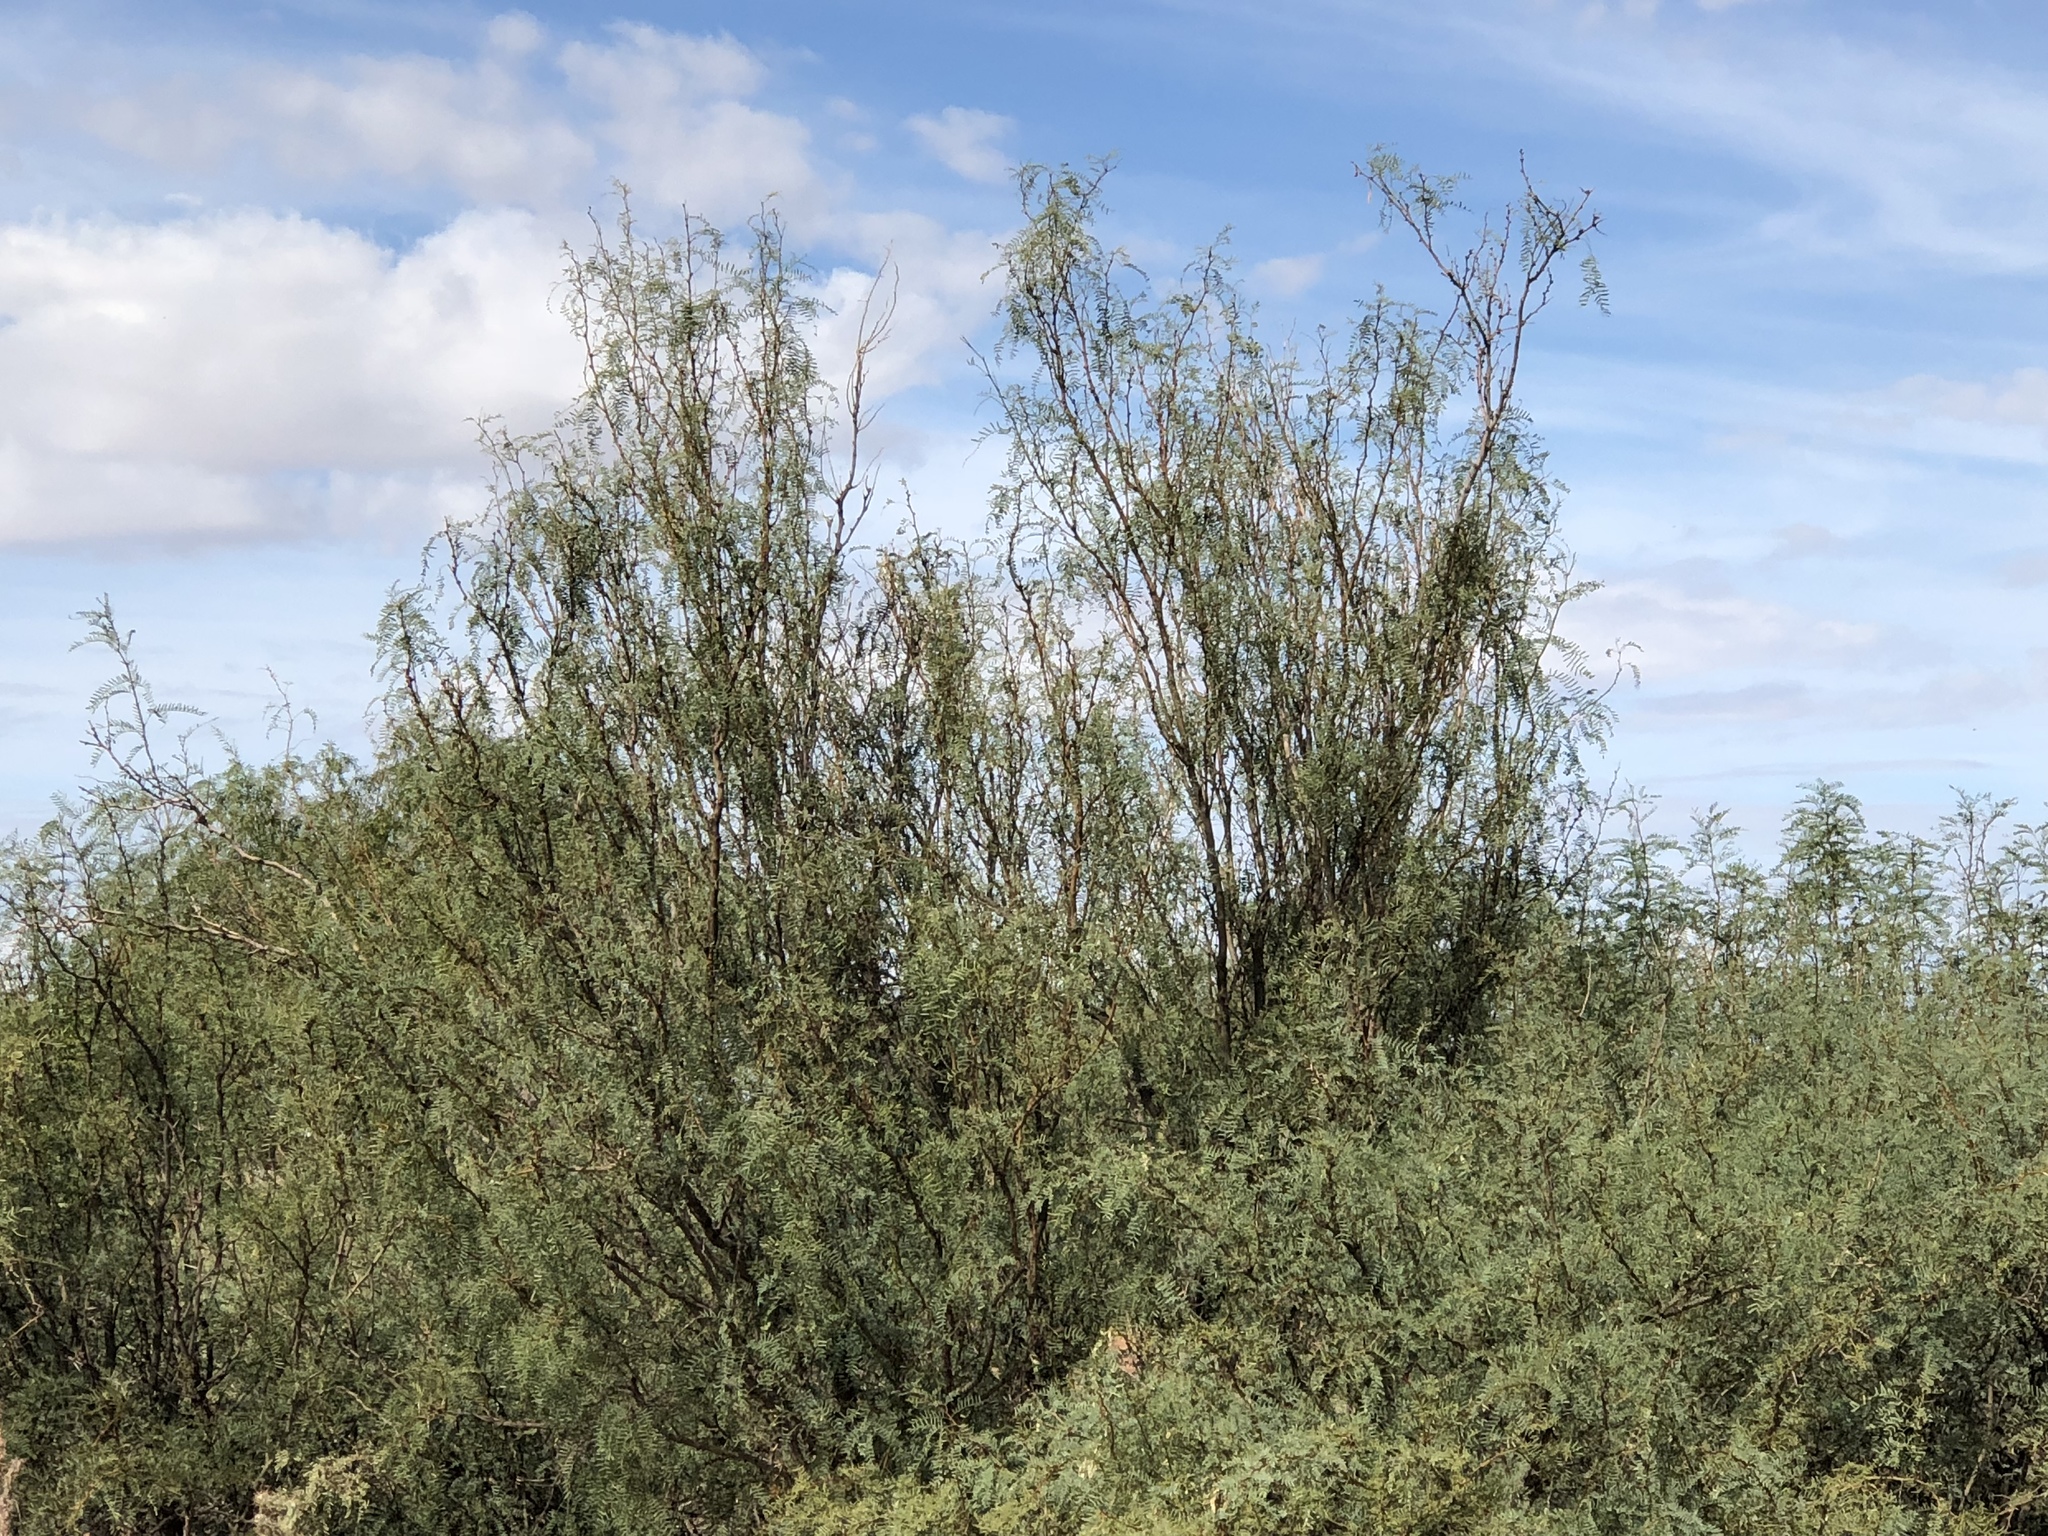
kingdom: Plantae
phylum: Tracheophyta
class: Magnoliopsida
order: Fabales
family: Fabaceae
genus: Prosopis
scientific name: Prosopis glandulosa
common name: Honey mesquite
